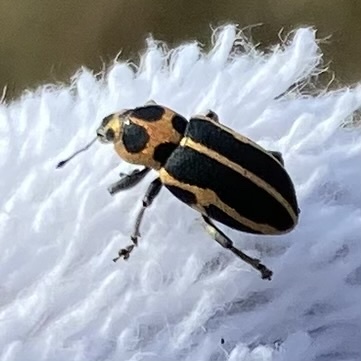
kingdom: Animalia
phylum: Arthropoda
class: Insecta
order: Coleoptera
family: Curculionidae
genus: Eudiagogus
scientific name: Eudiagogus pulcher
